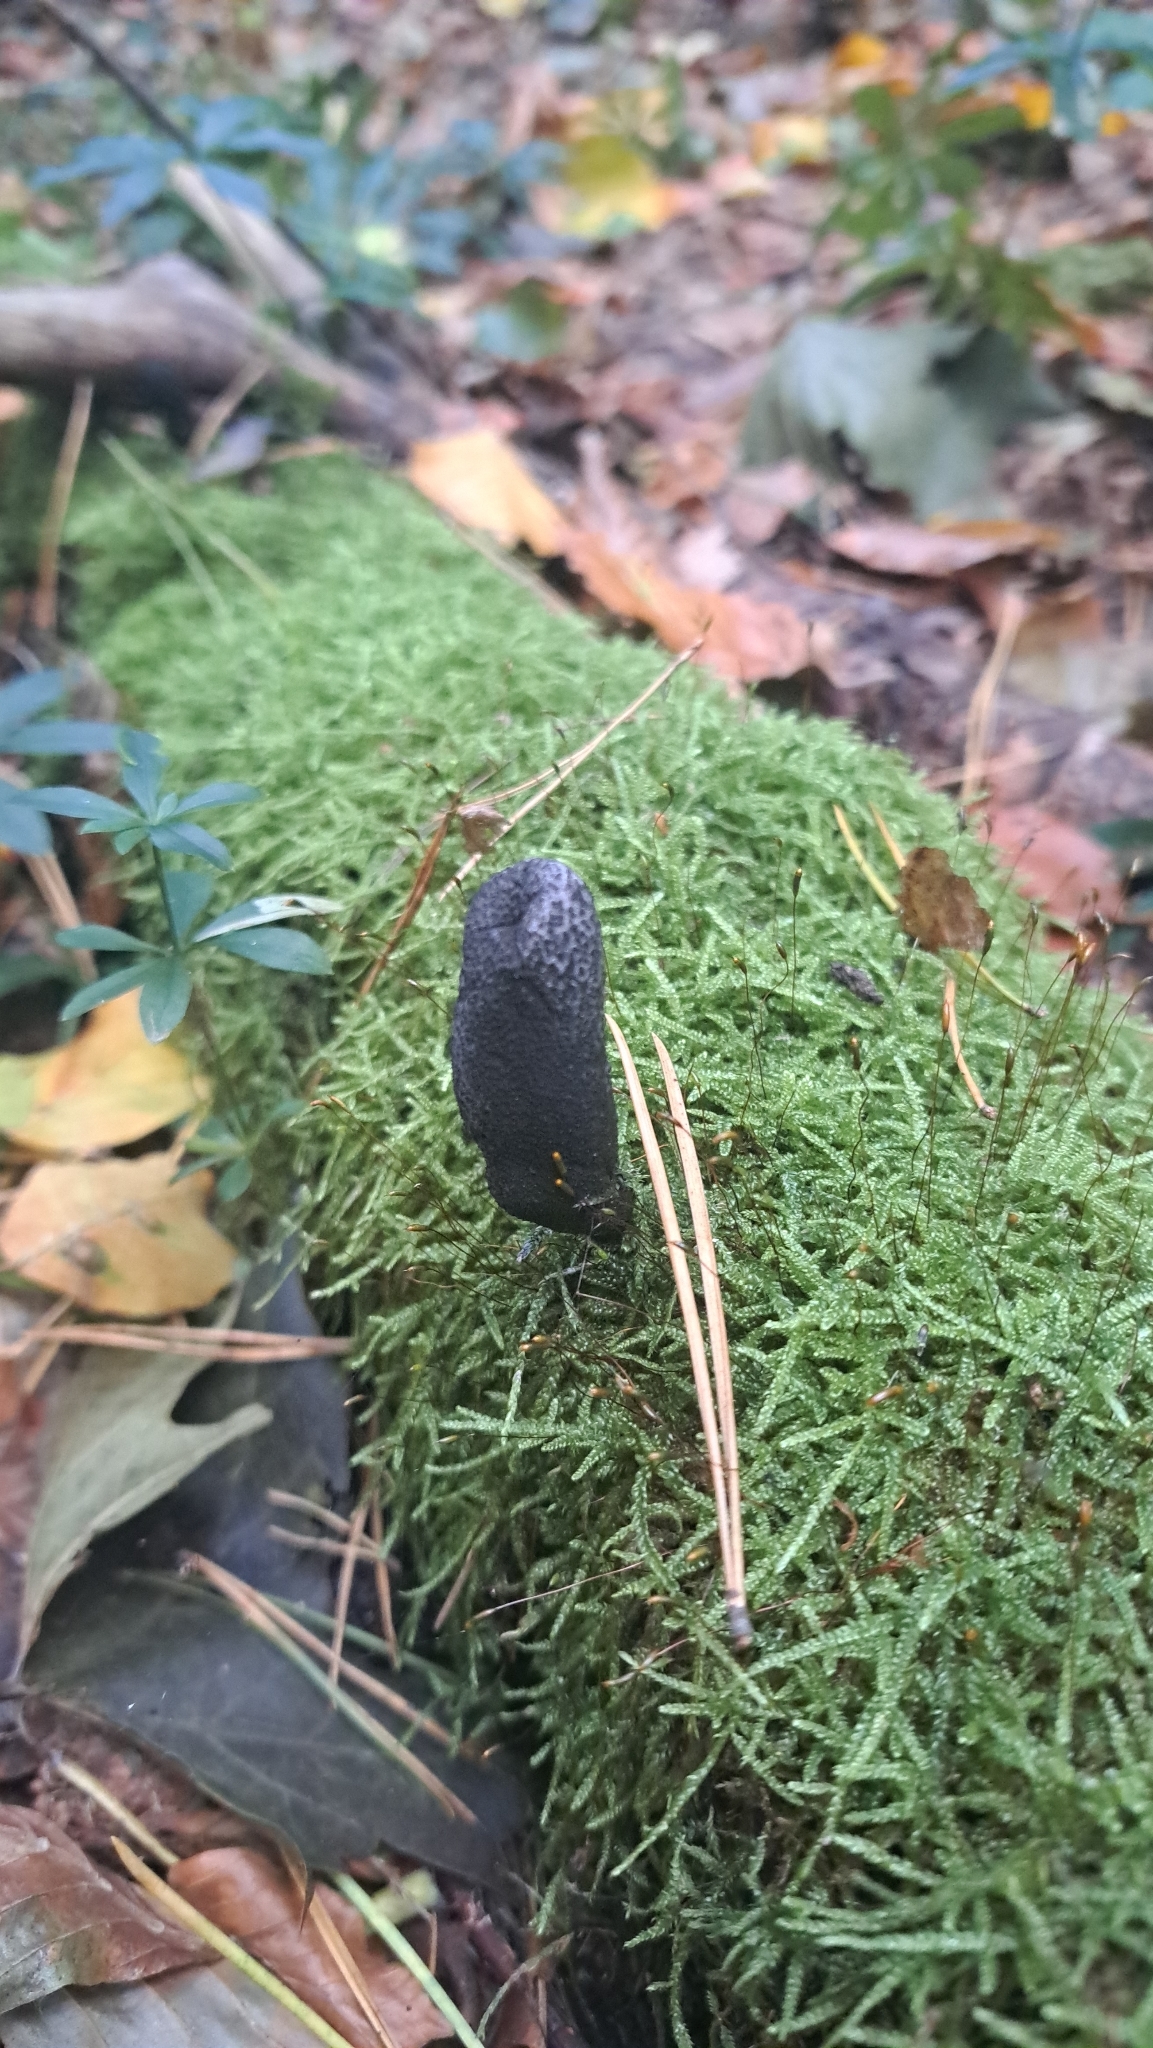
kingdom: Fungi
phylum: Ascomycota
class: Sordariomycetes
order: Xylariales
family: Xylariaceae
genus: Xylaria
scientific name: Xylaria polymorpha
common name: Dead man's fingers
